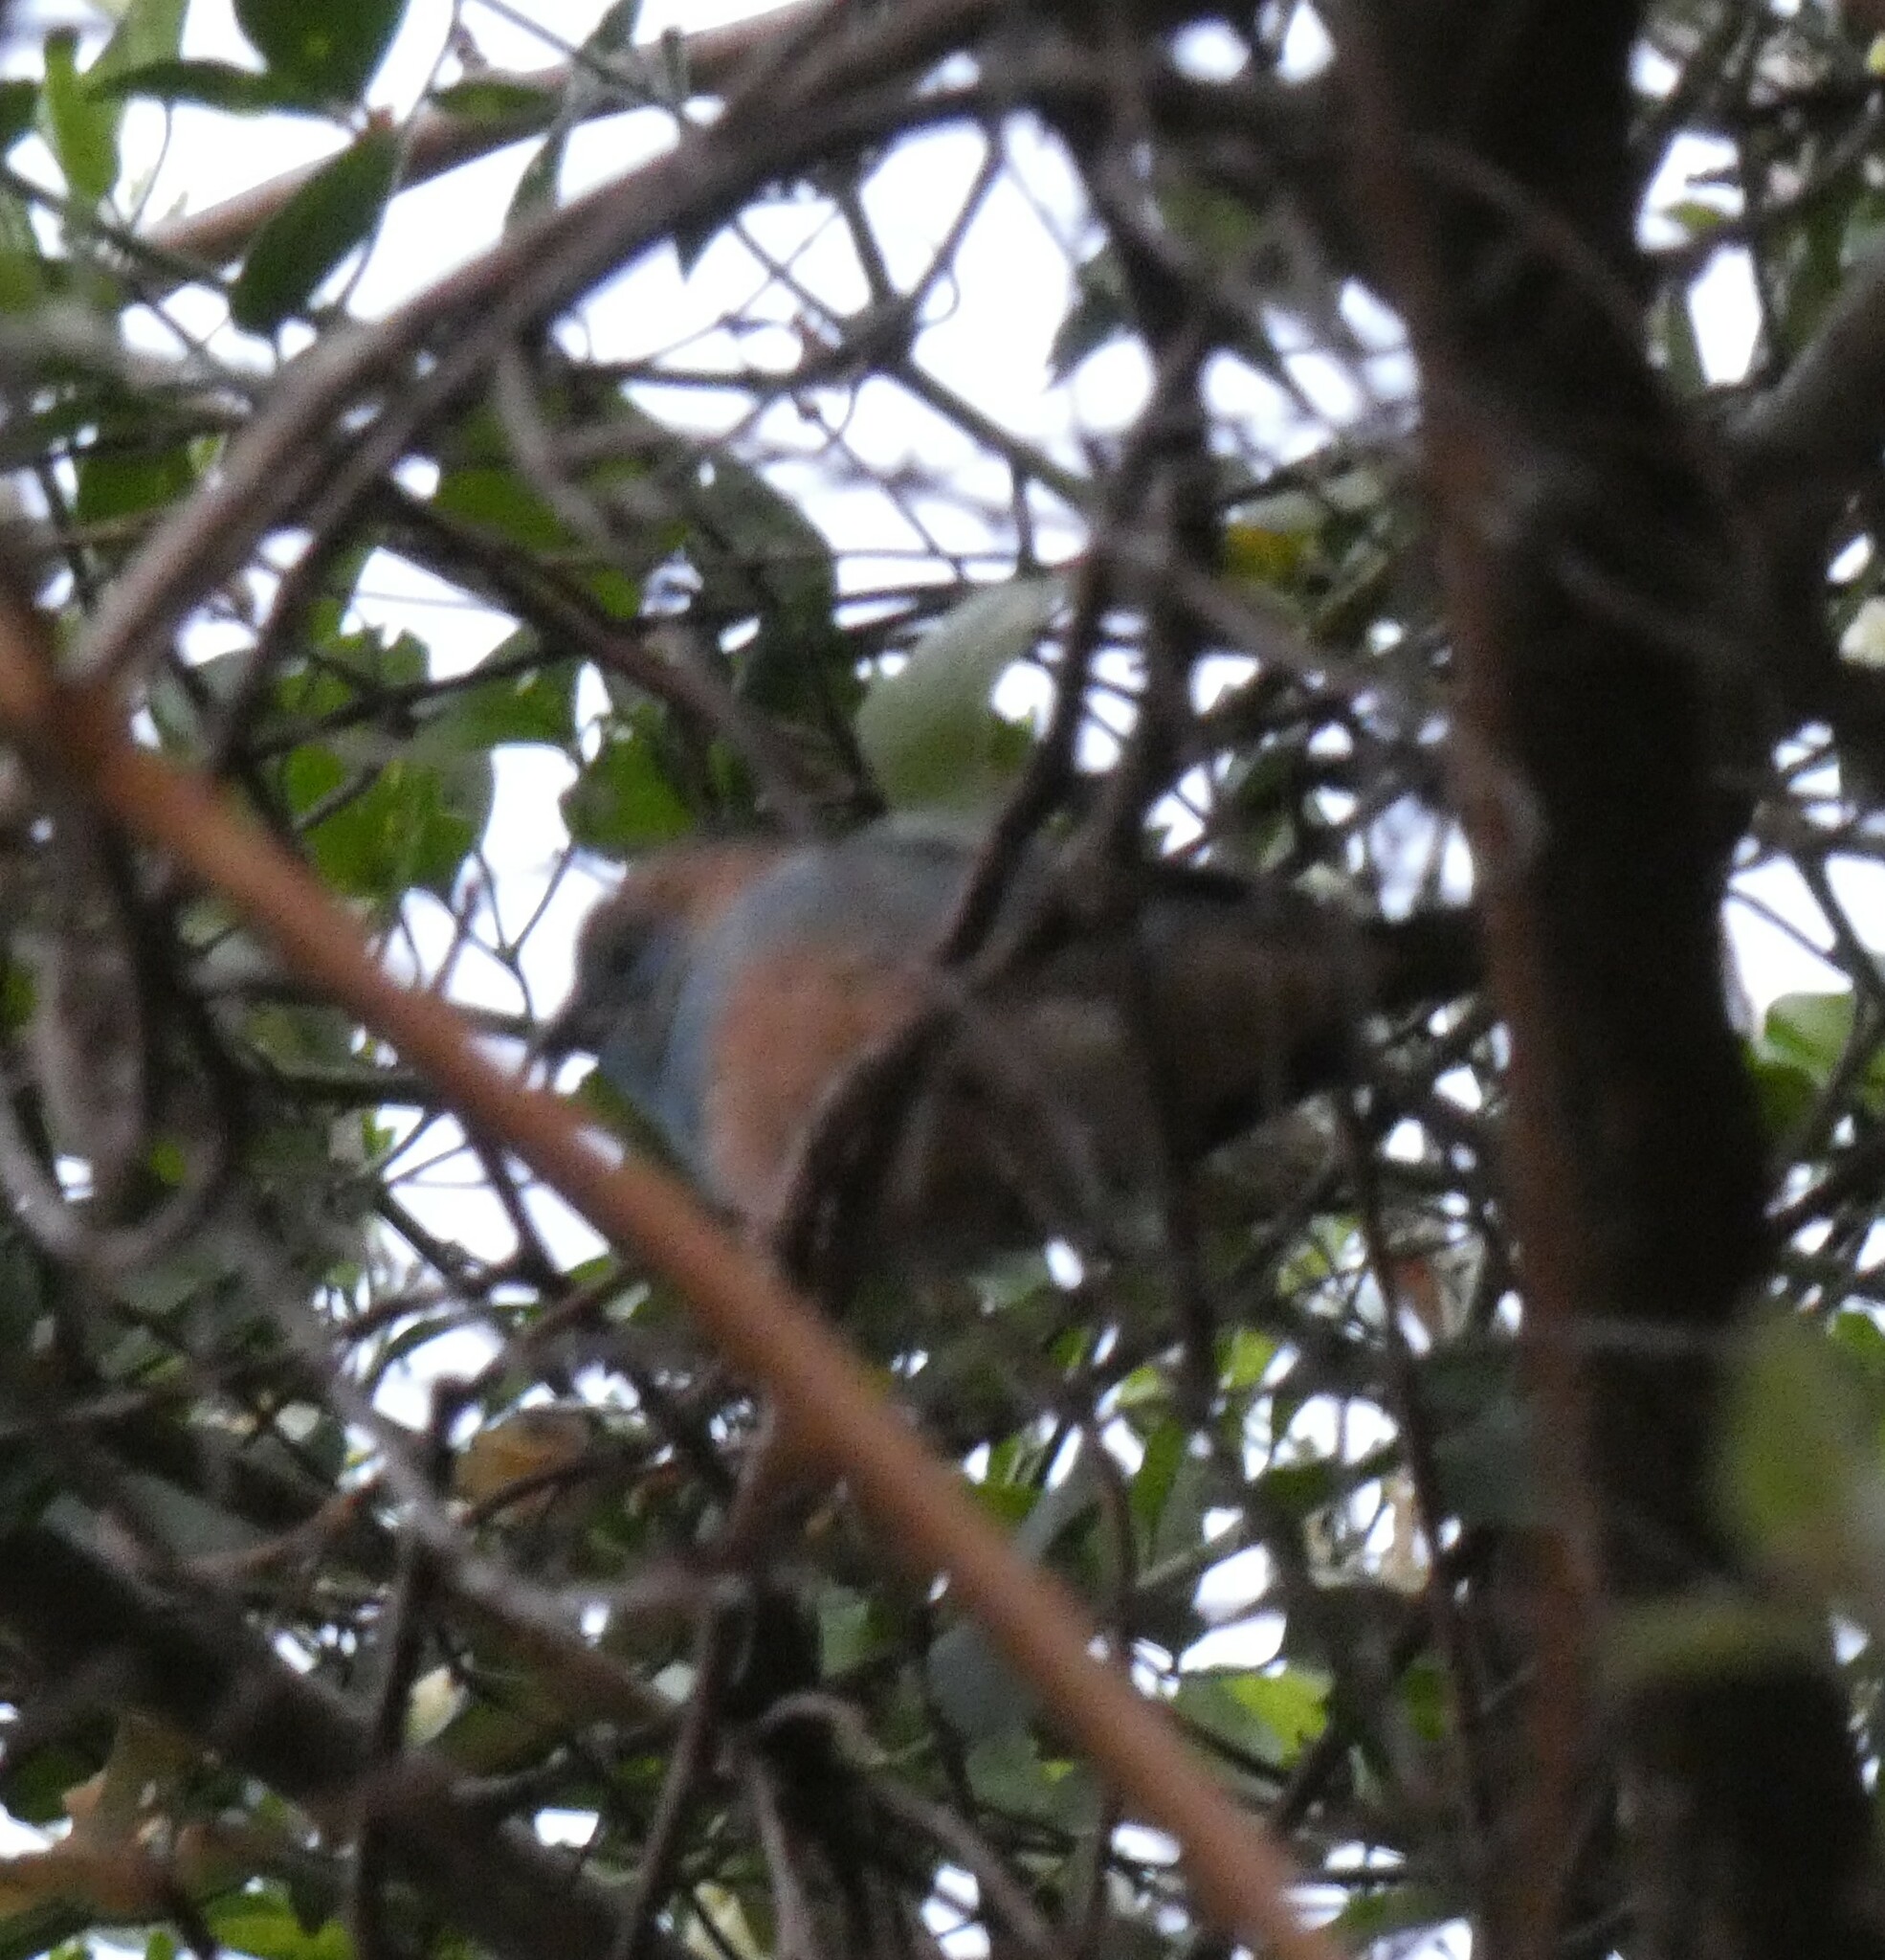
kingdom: Animalia
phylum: Chordata
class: Aves
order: Passeriformes
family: Estrildidae
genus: Uraeginthus
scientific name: Uraeginthus angolensis
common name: Blue waxbill
